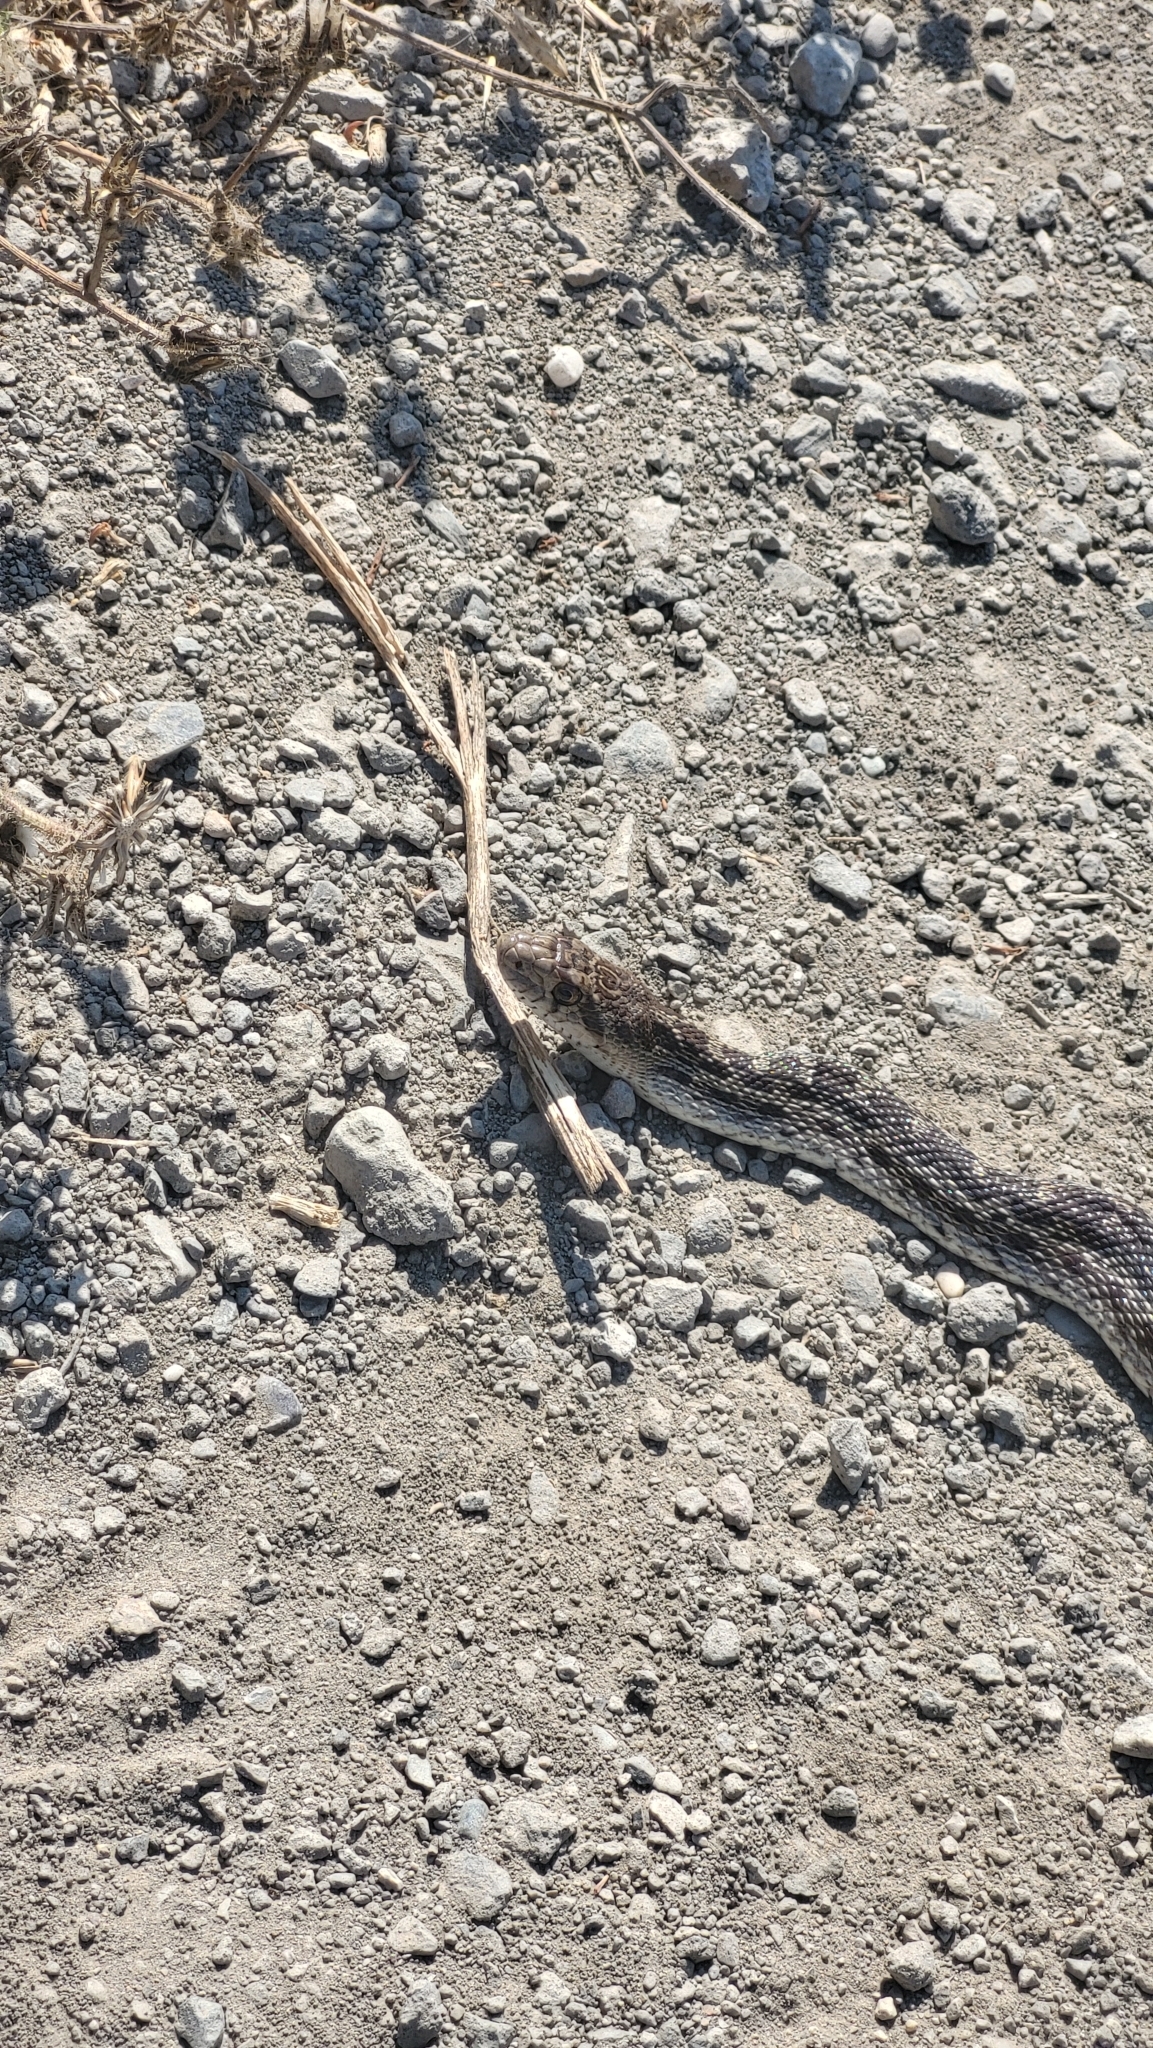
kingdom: Animalia
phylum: Chordata
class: Squamata
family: Colubridae
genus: Pituophis
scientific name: Pituophis catenifer
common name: Gopher snake
